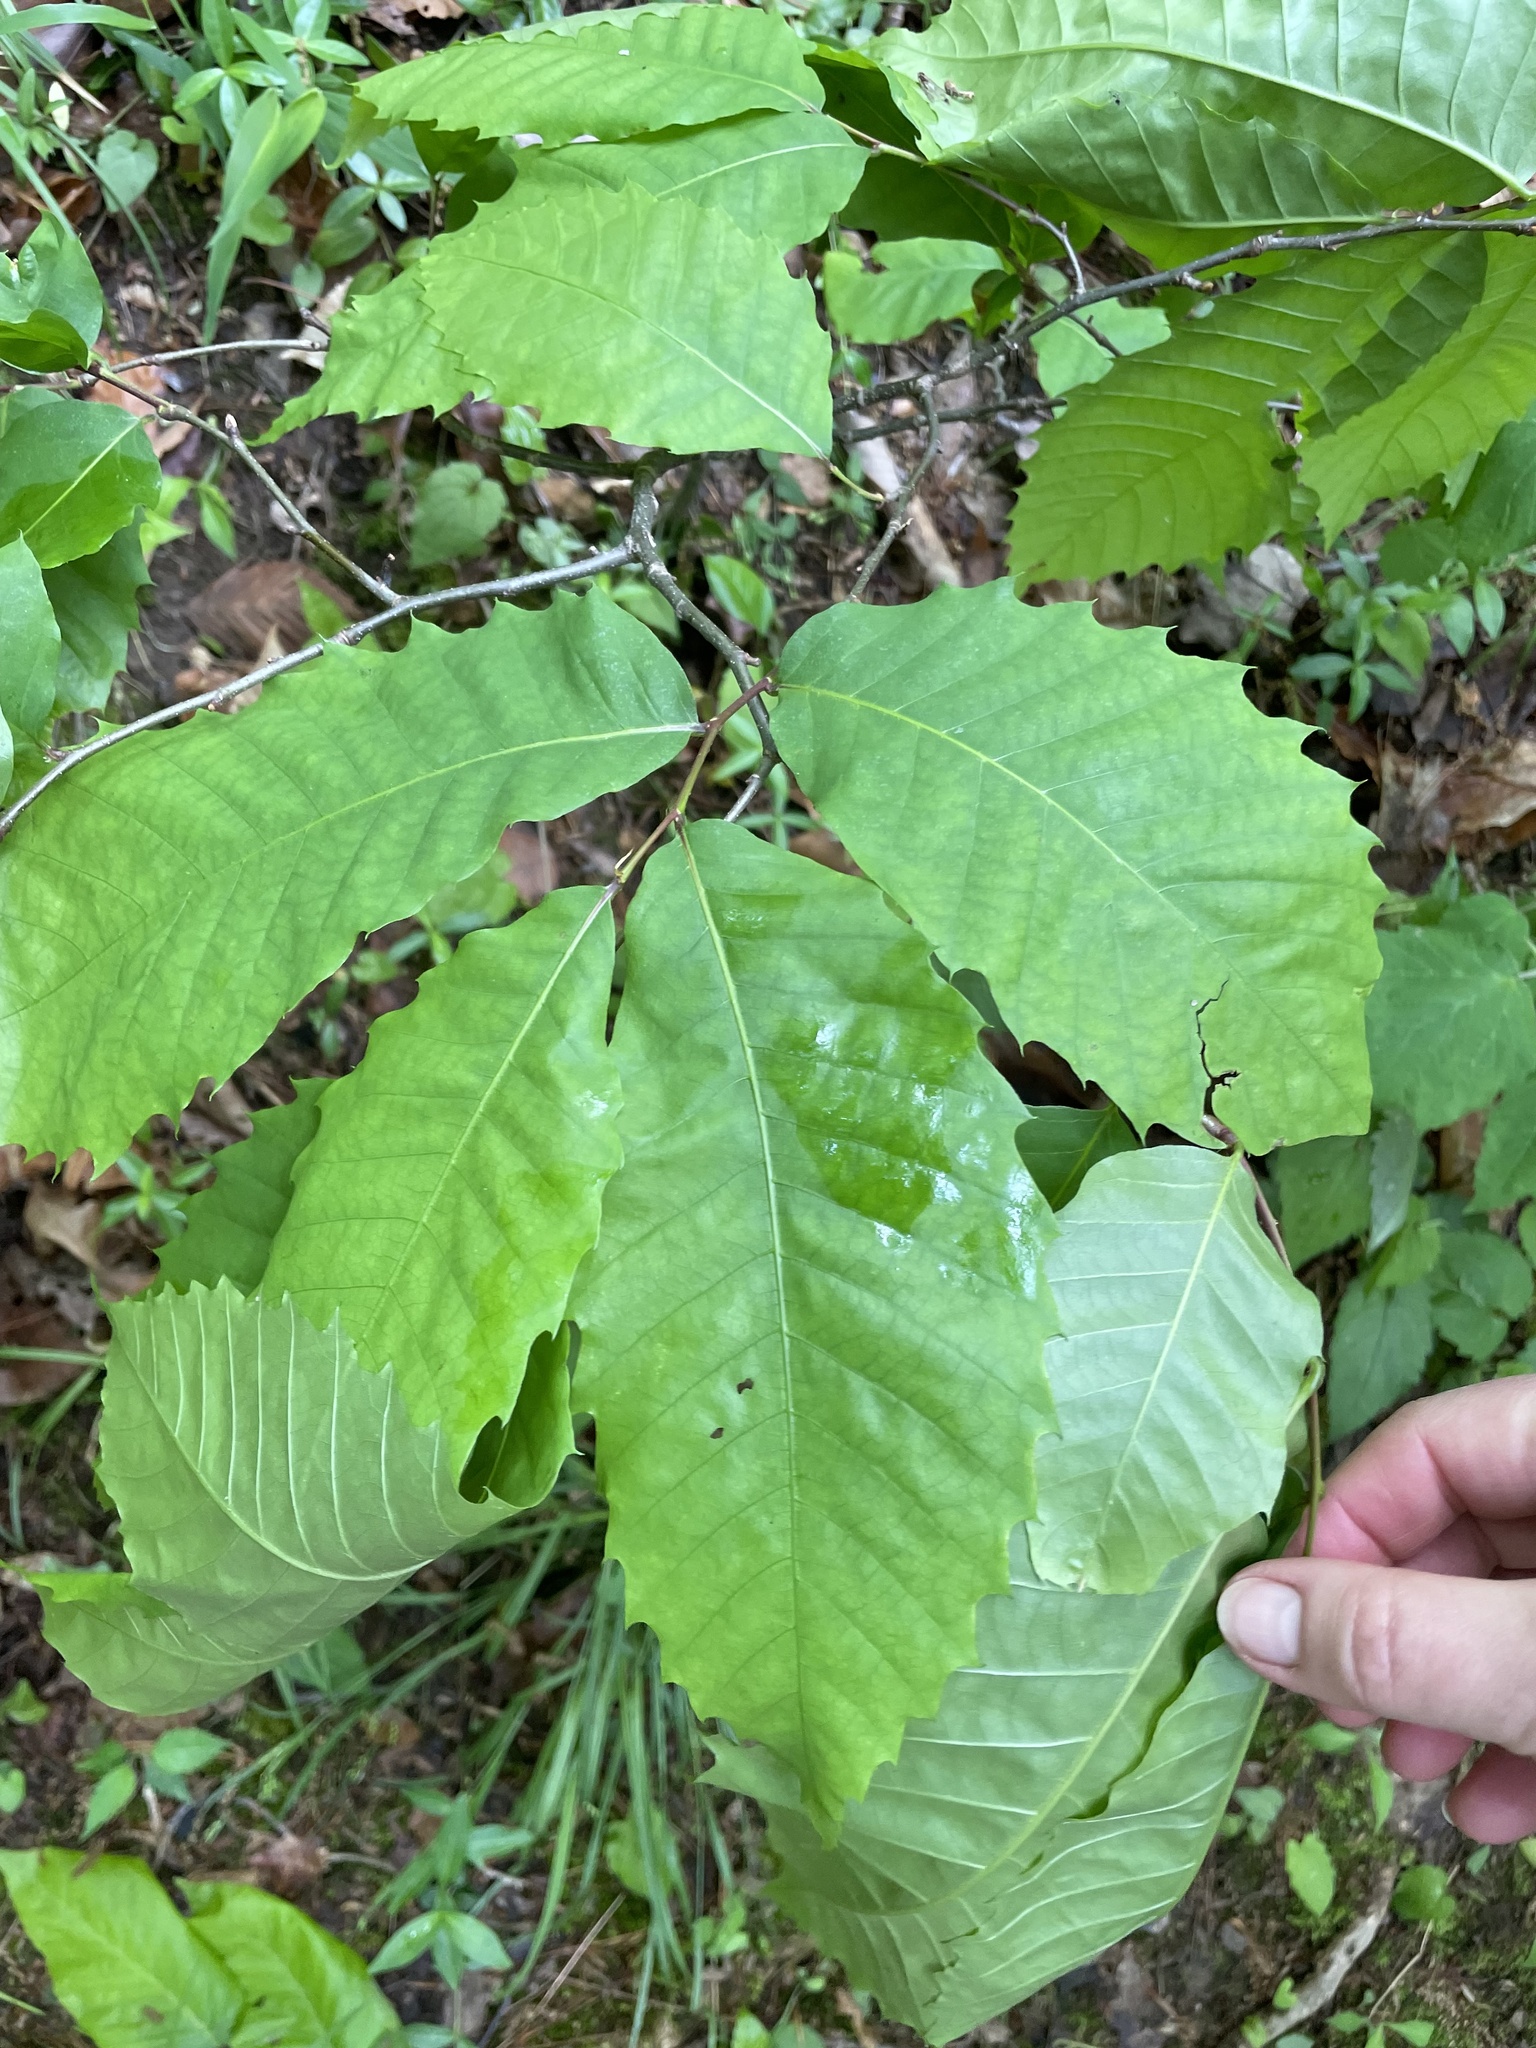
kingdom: Plantae
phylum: Tracheophyta
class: Magnoliopsida
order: Fagales
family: Fagaceae
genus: Castanea
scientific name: Castanea dentata
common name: American chestnut
